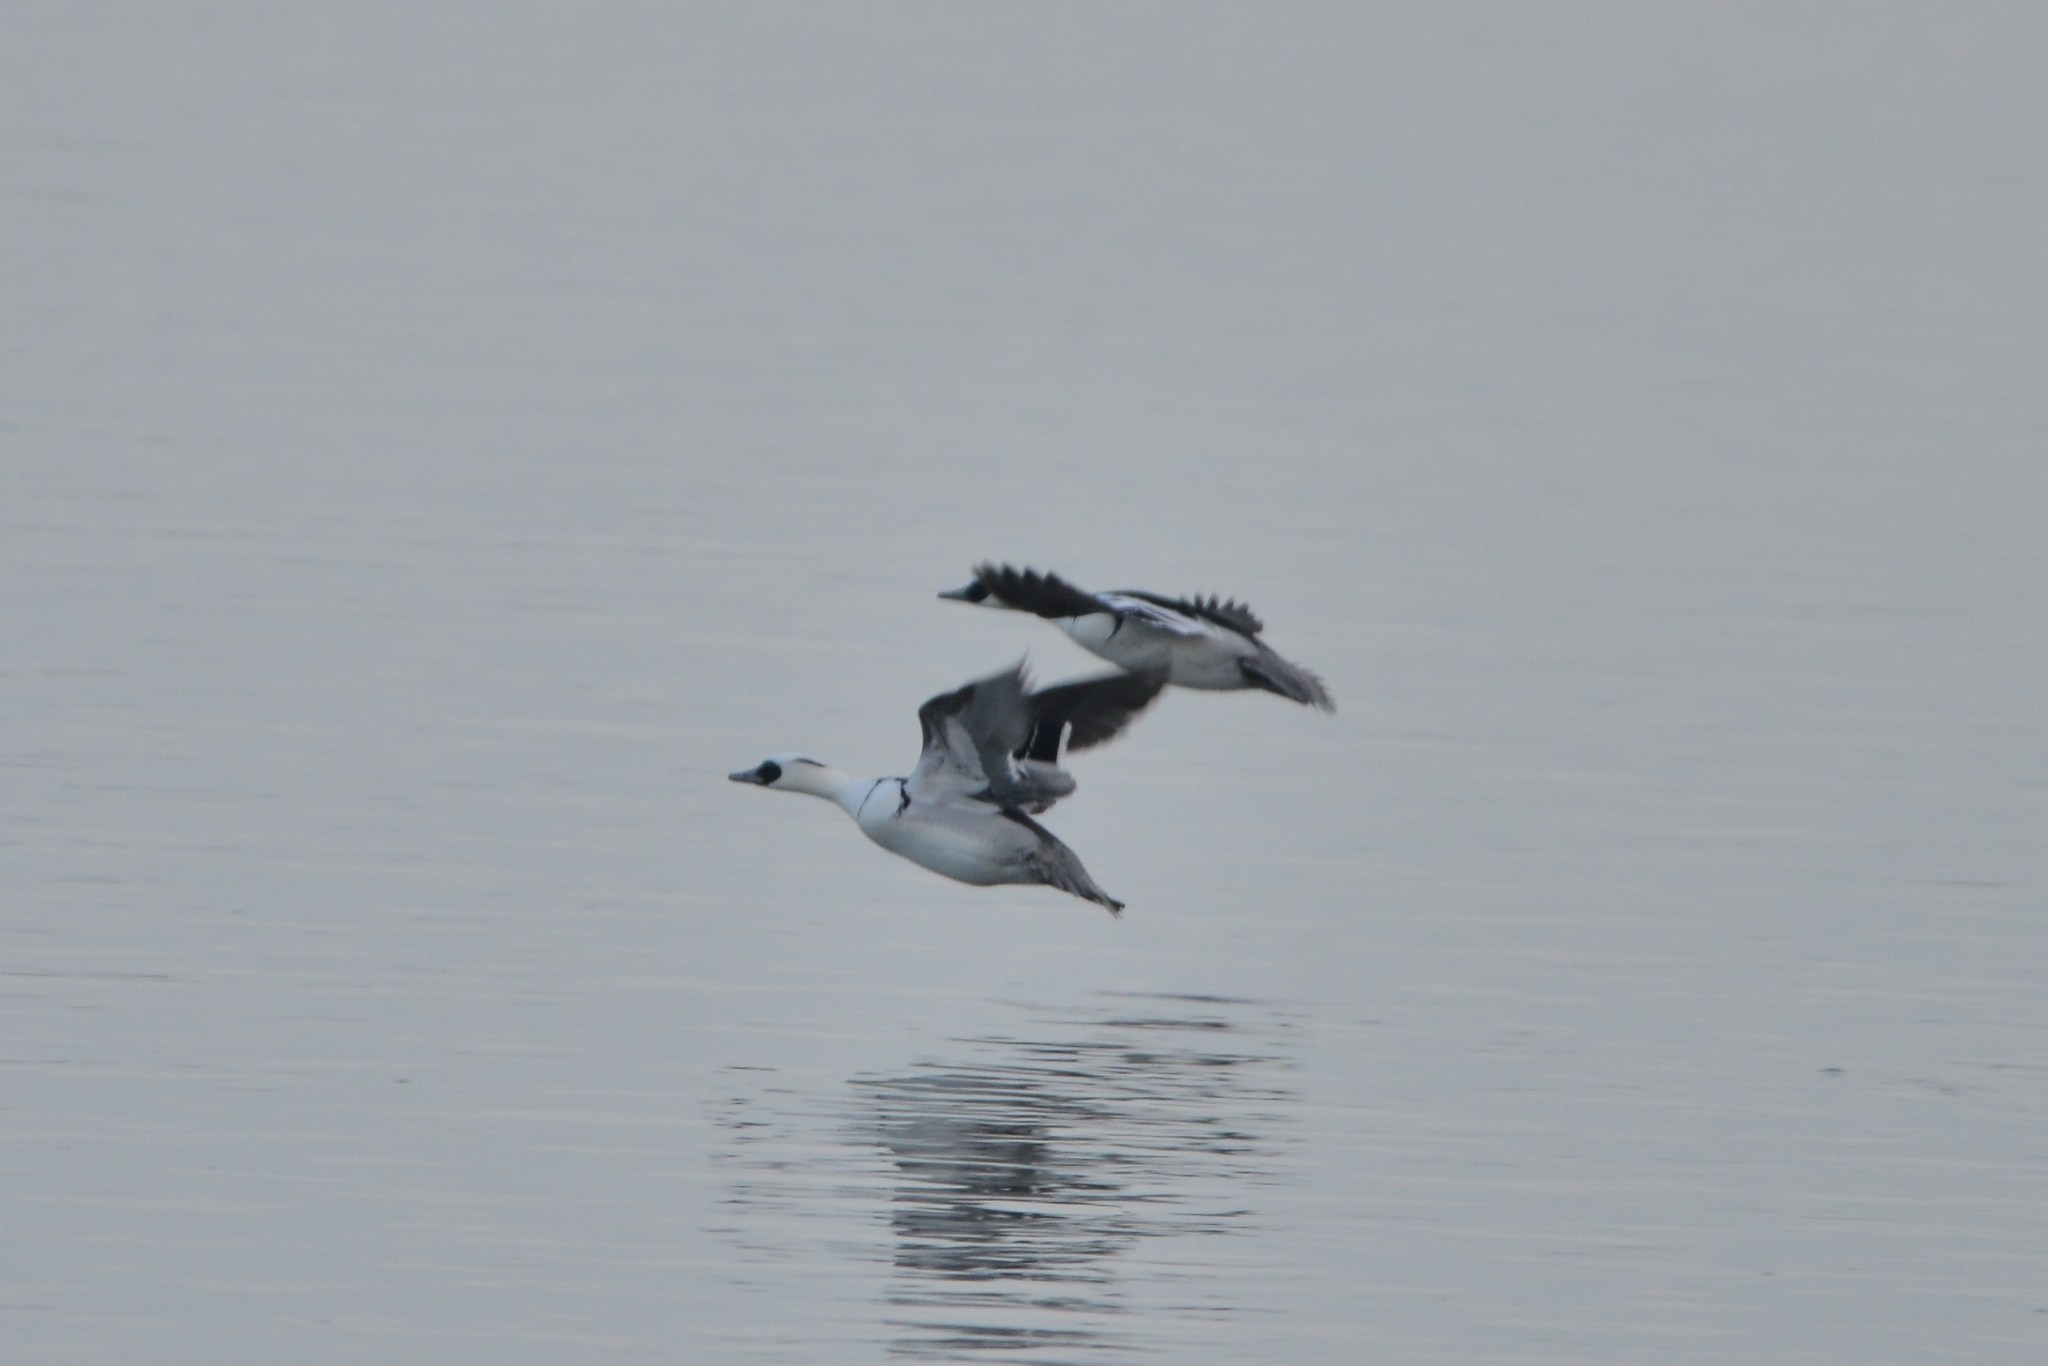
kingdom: Animalia
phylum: Chordata
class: Aves
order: Anseriformes
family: Anatidae
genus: Mergellus
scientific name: Mergellus albellus
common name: Smew
